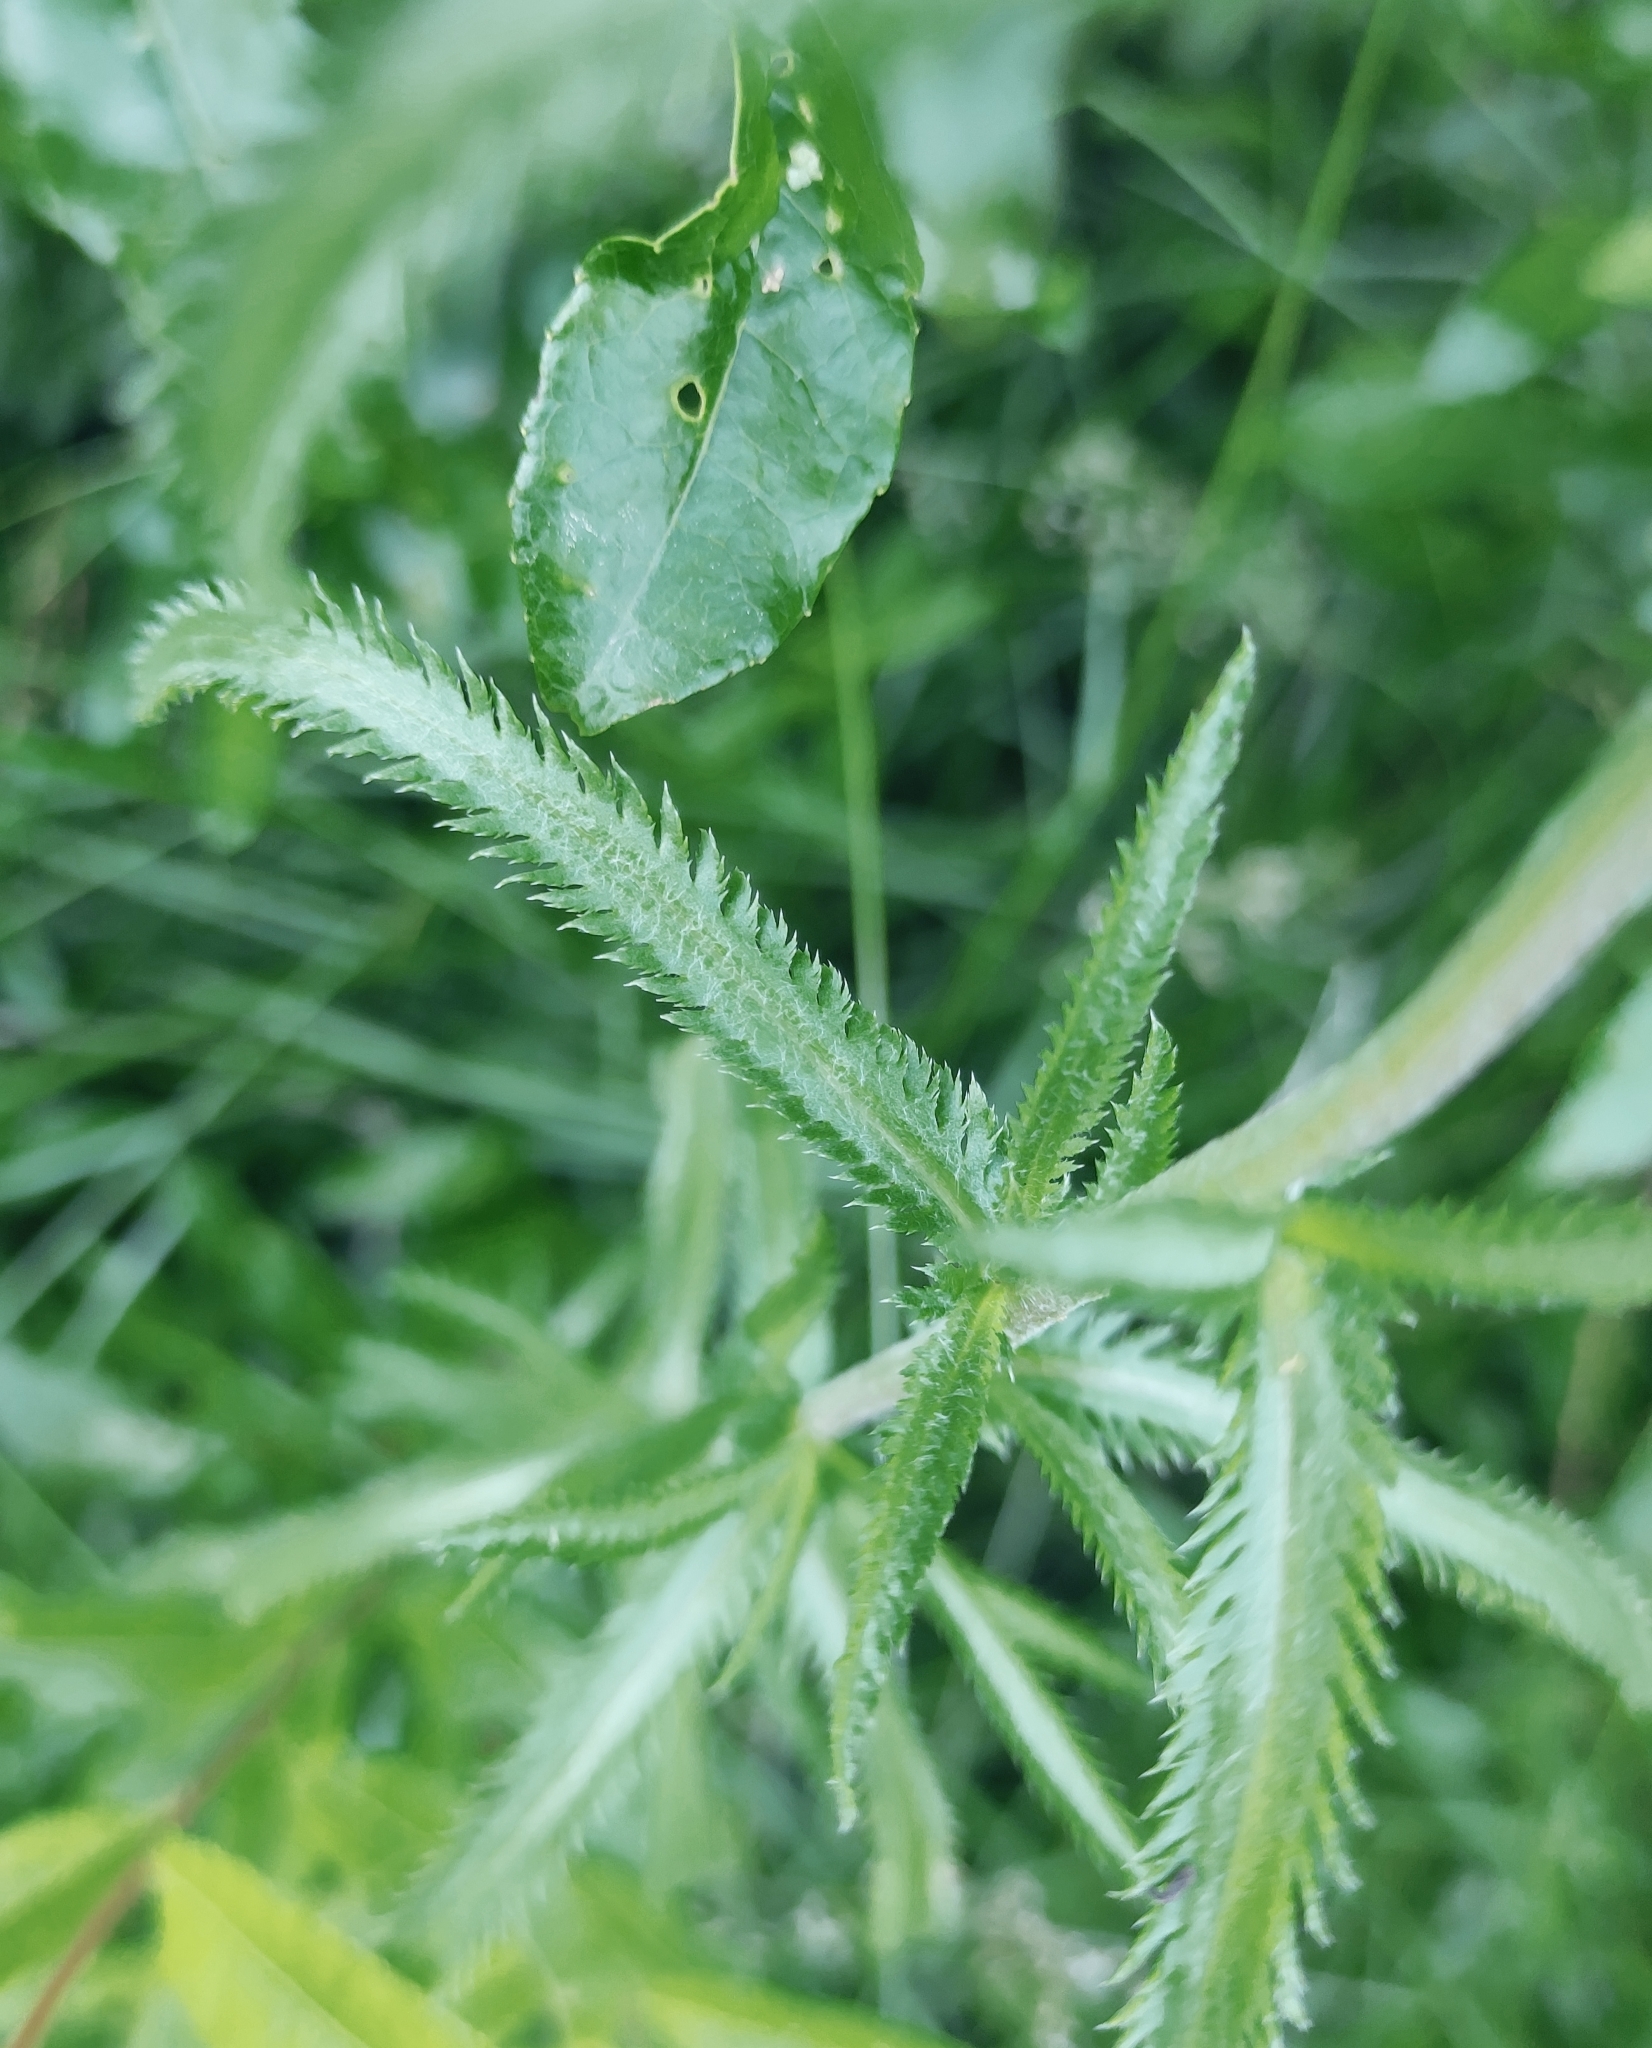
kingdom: Plantae
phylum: Tracheophyta
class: Magnoliopsida
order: Asterales
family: Asteraceae
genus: Achillea
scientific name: Achillea alpina
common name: Siberian yarrow
